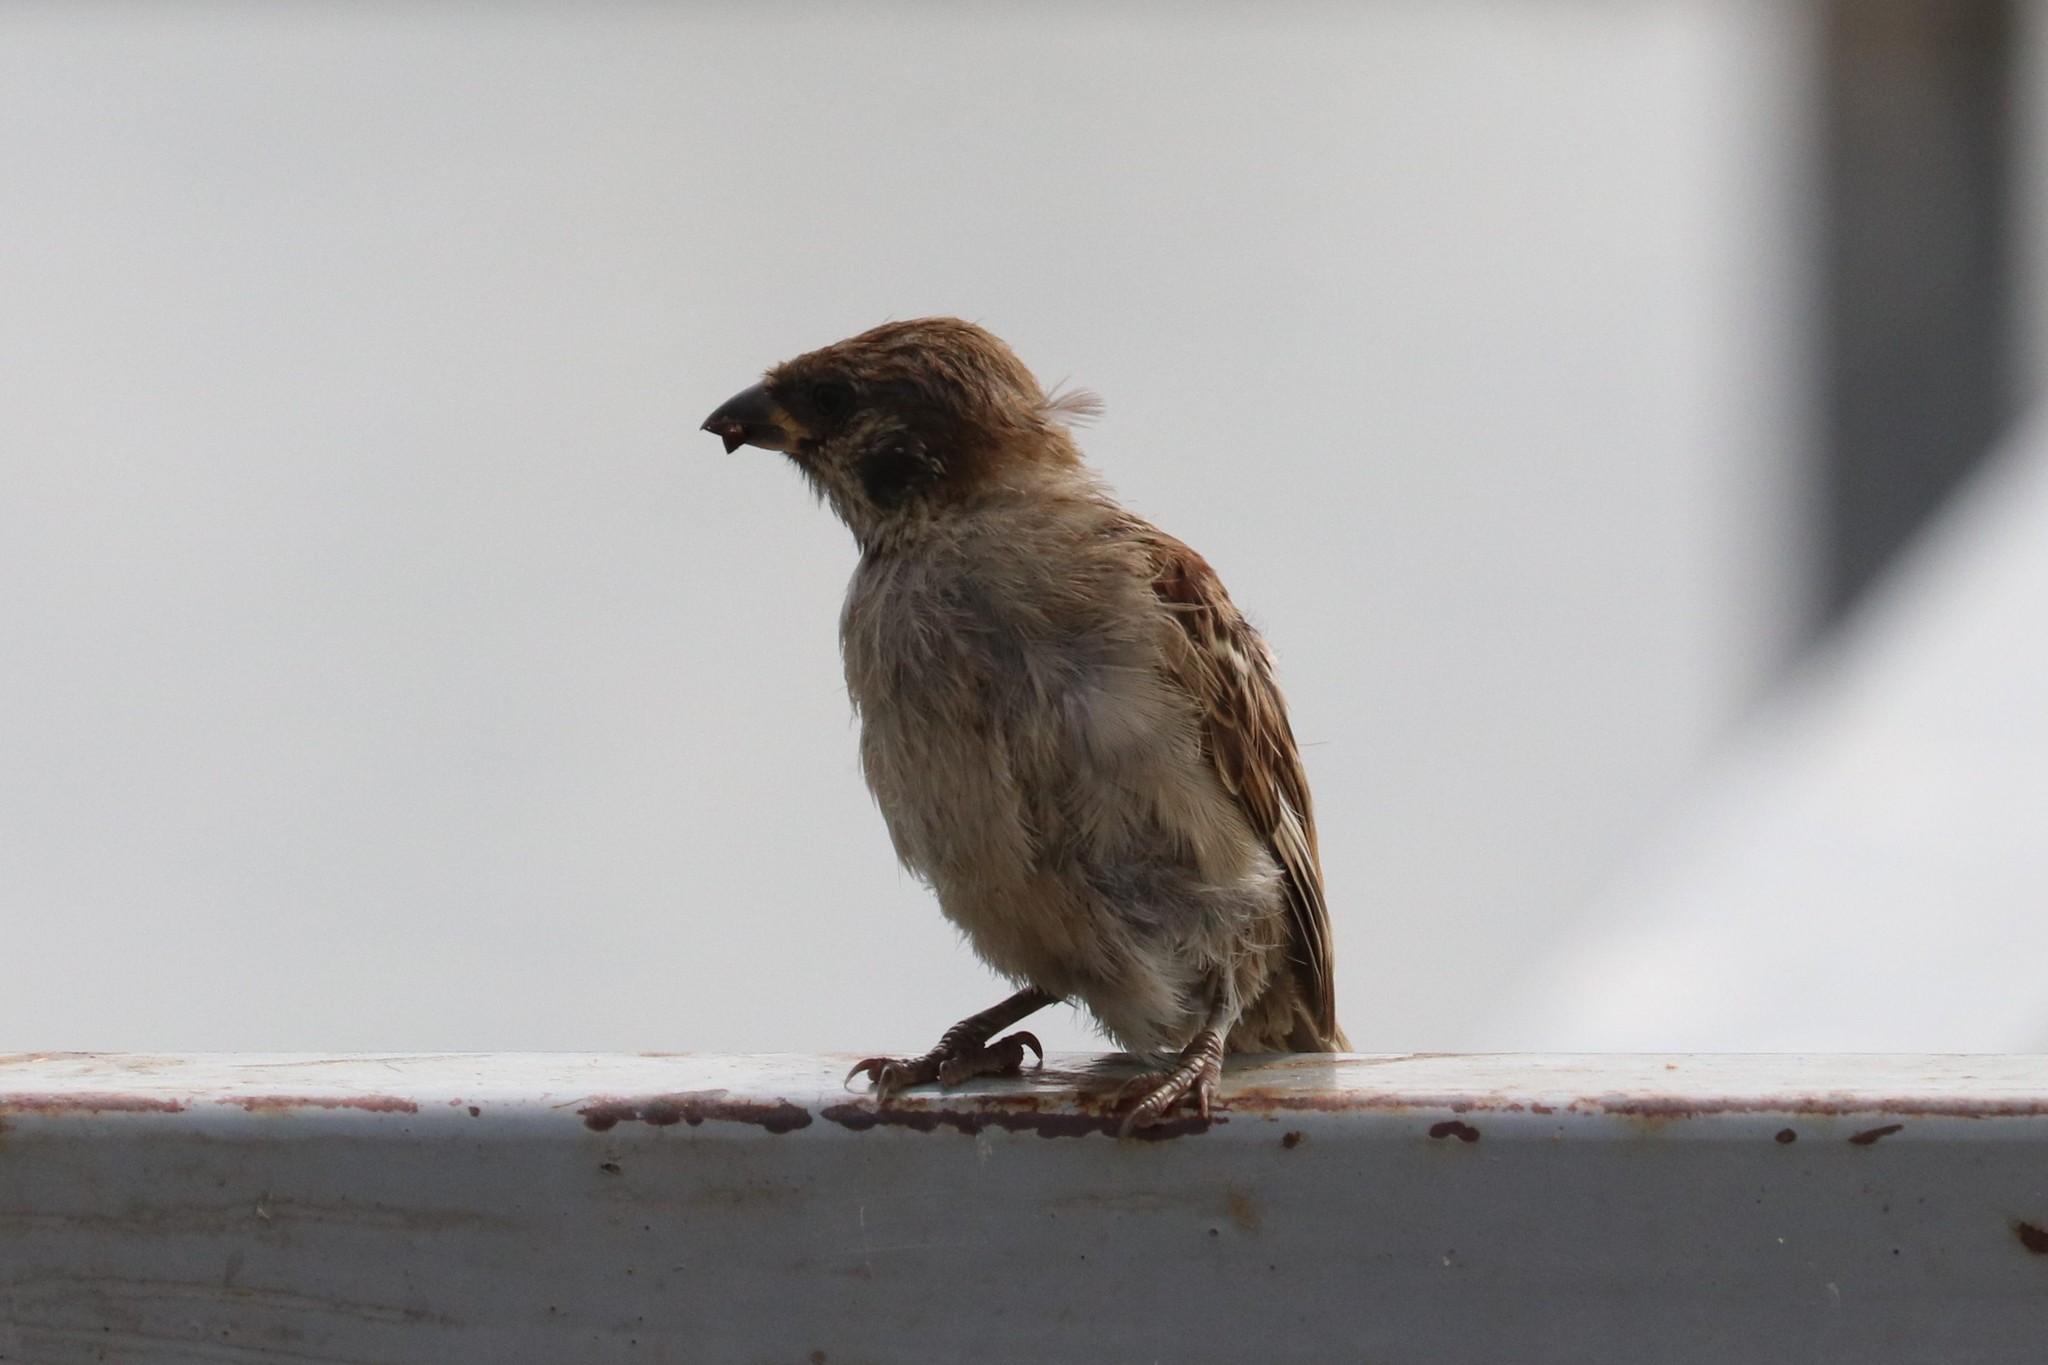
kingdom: Animalia
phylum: Chordata
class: Aves
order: Passeriformes
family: Passeridae
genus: Passer
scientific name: Passer montanus
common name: Eurasian tree sparrow
